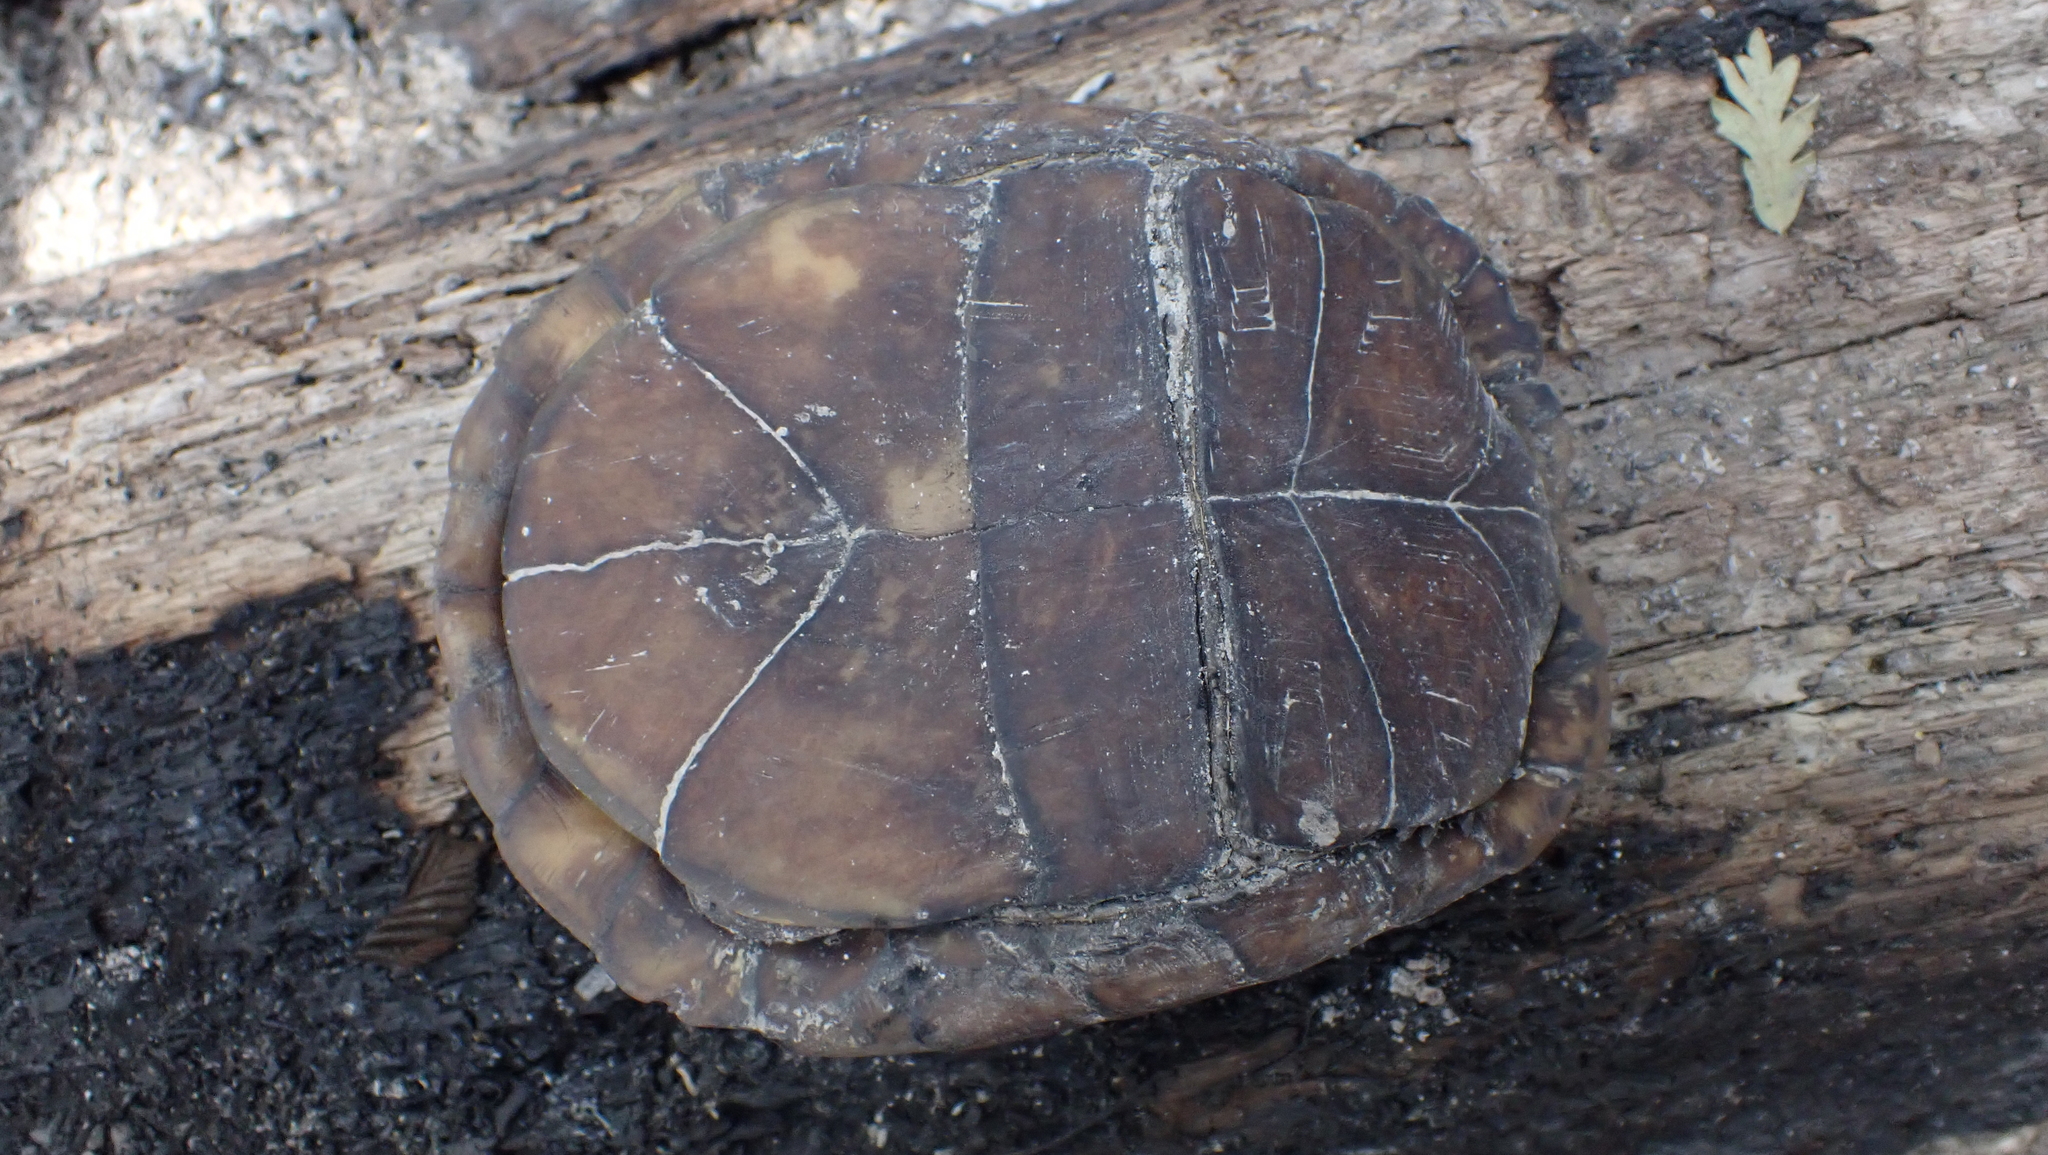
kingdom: Animalia
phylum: Chordata
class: Testudines
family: Emydidae
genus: Terrapene
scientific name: Terrapene carolina
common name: Common box turtle
